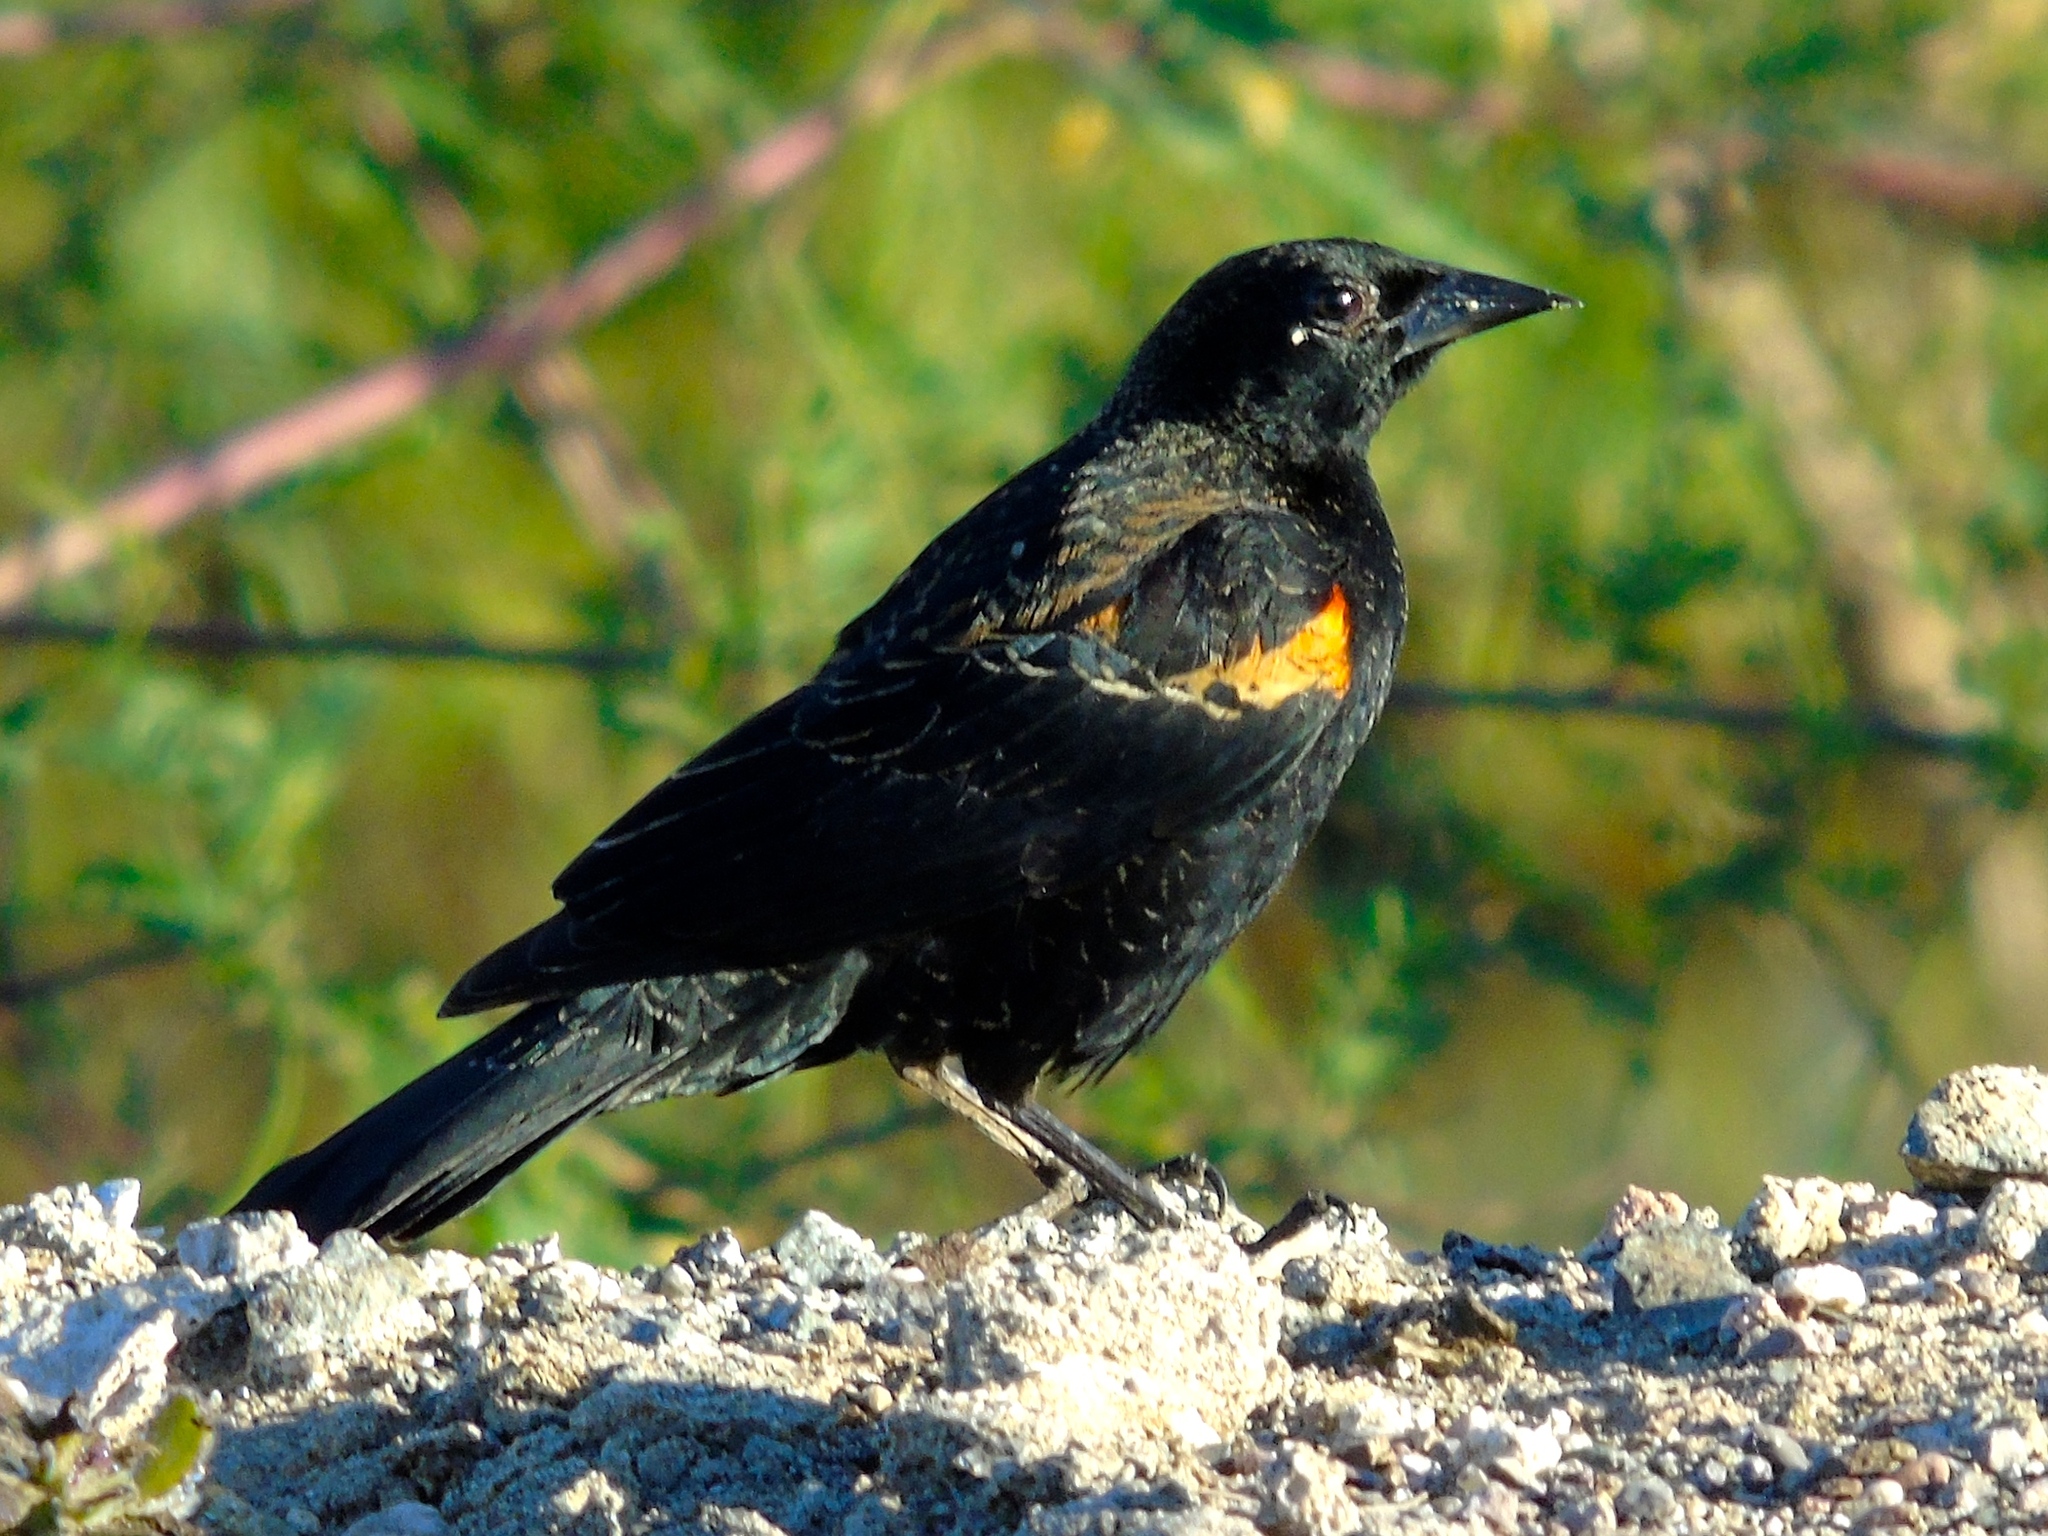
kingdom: Animalia
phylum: Chordata
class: Aves
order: Passeriformes
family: Icteridae
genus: Agelaius
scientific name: Agelaius phoeniceus
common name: Red-winged blackbird
